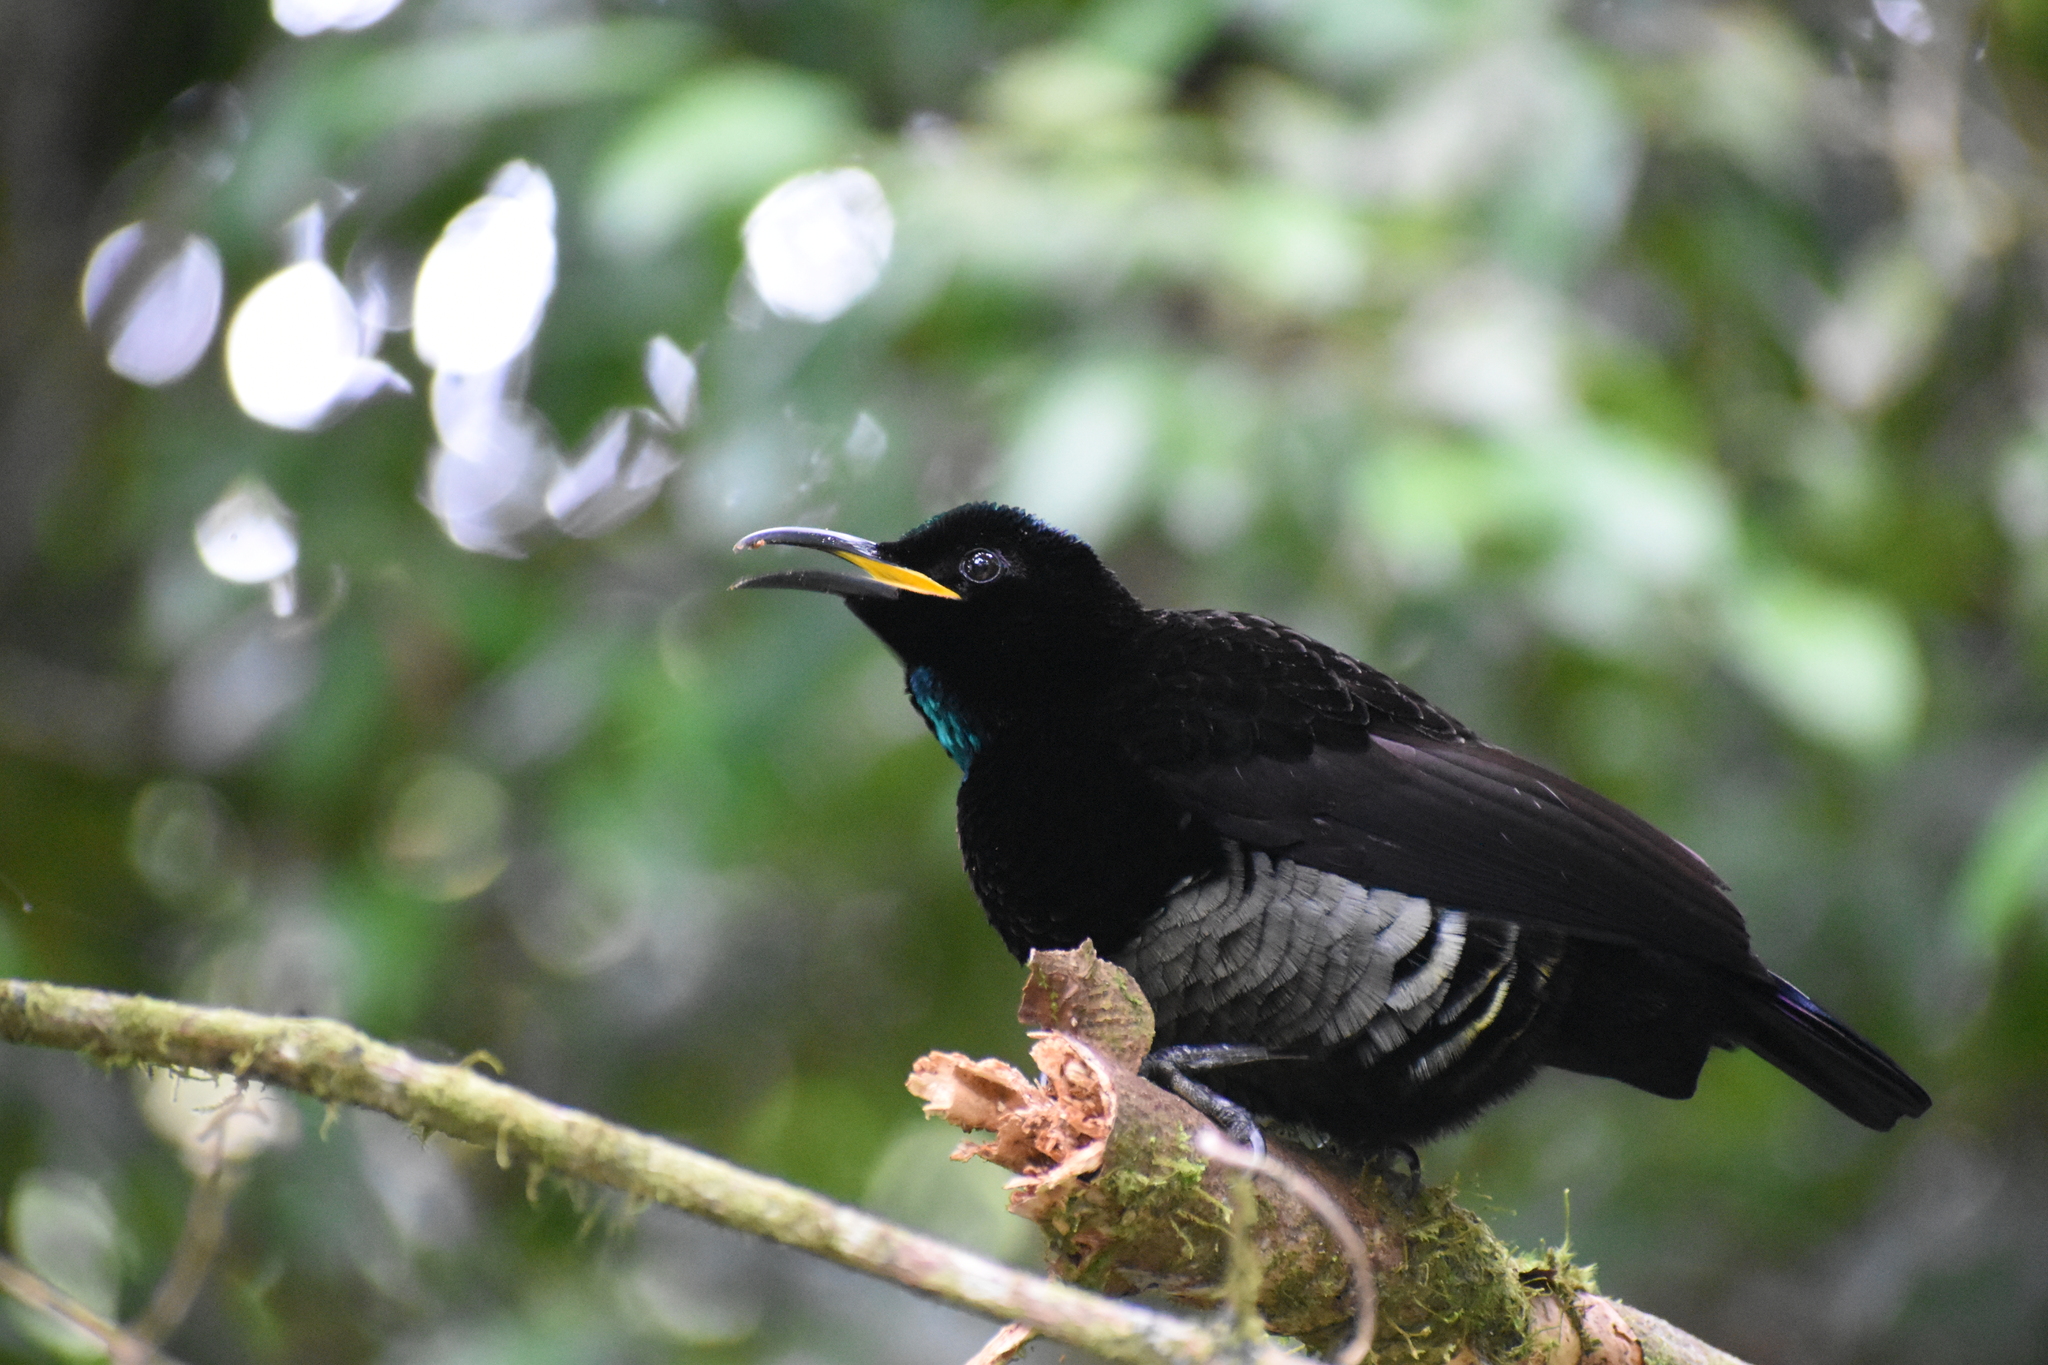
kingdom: Animalia
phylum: Chordata
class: Aves
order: Passeriformes
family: Paradisaeidae
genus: Ptiloris
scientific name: Ptiloris victoriae
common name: Victoria's riflebird
